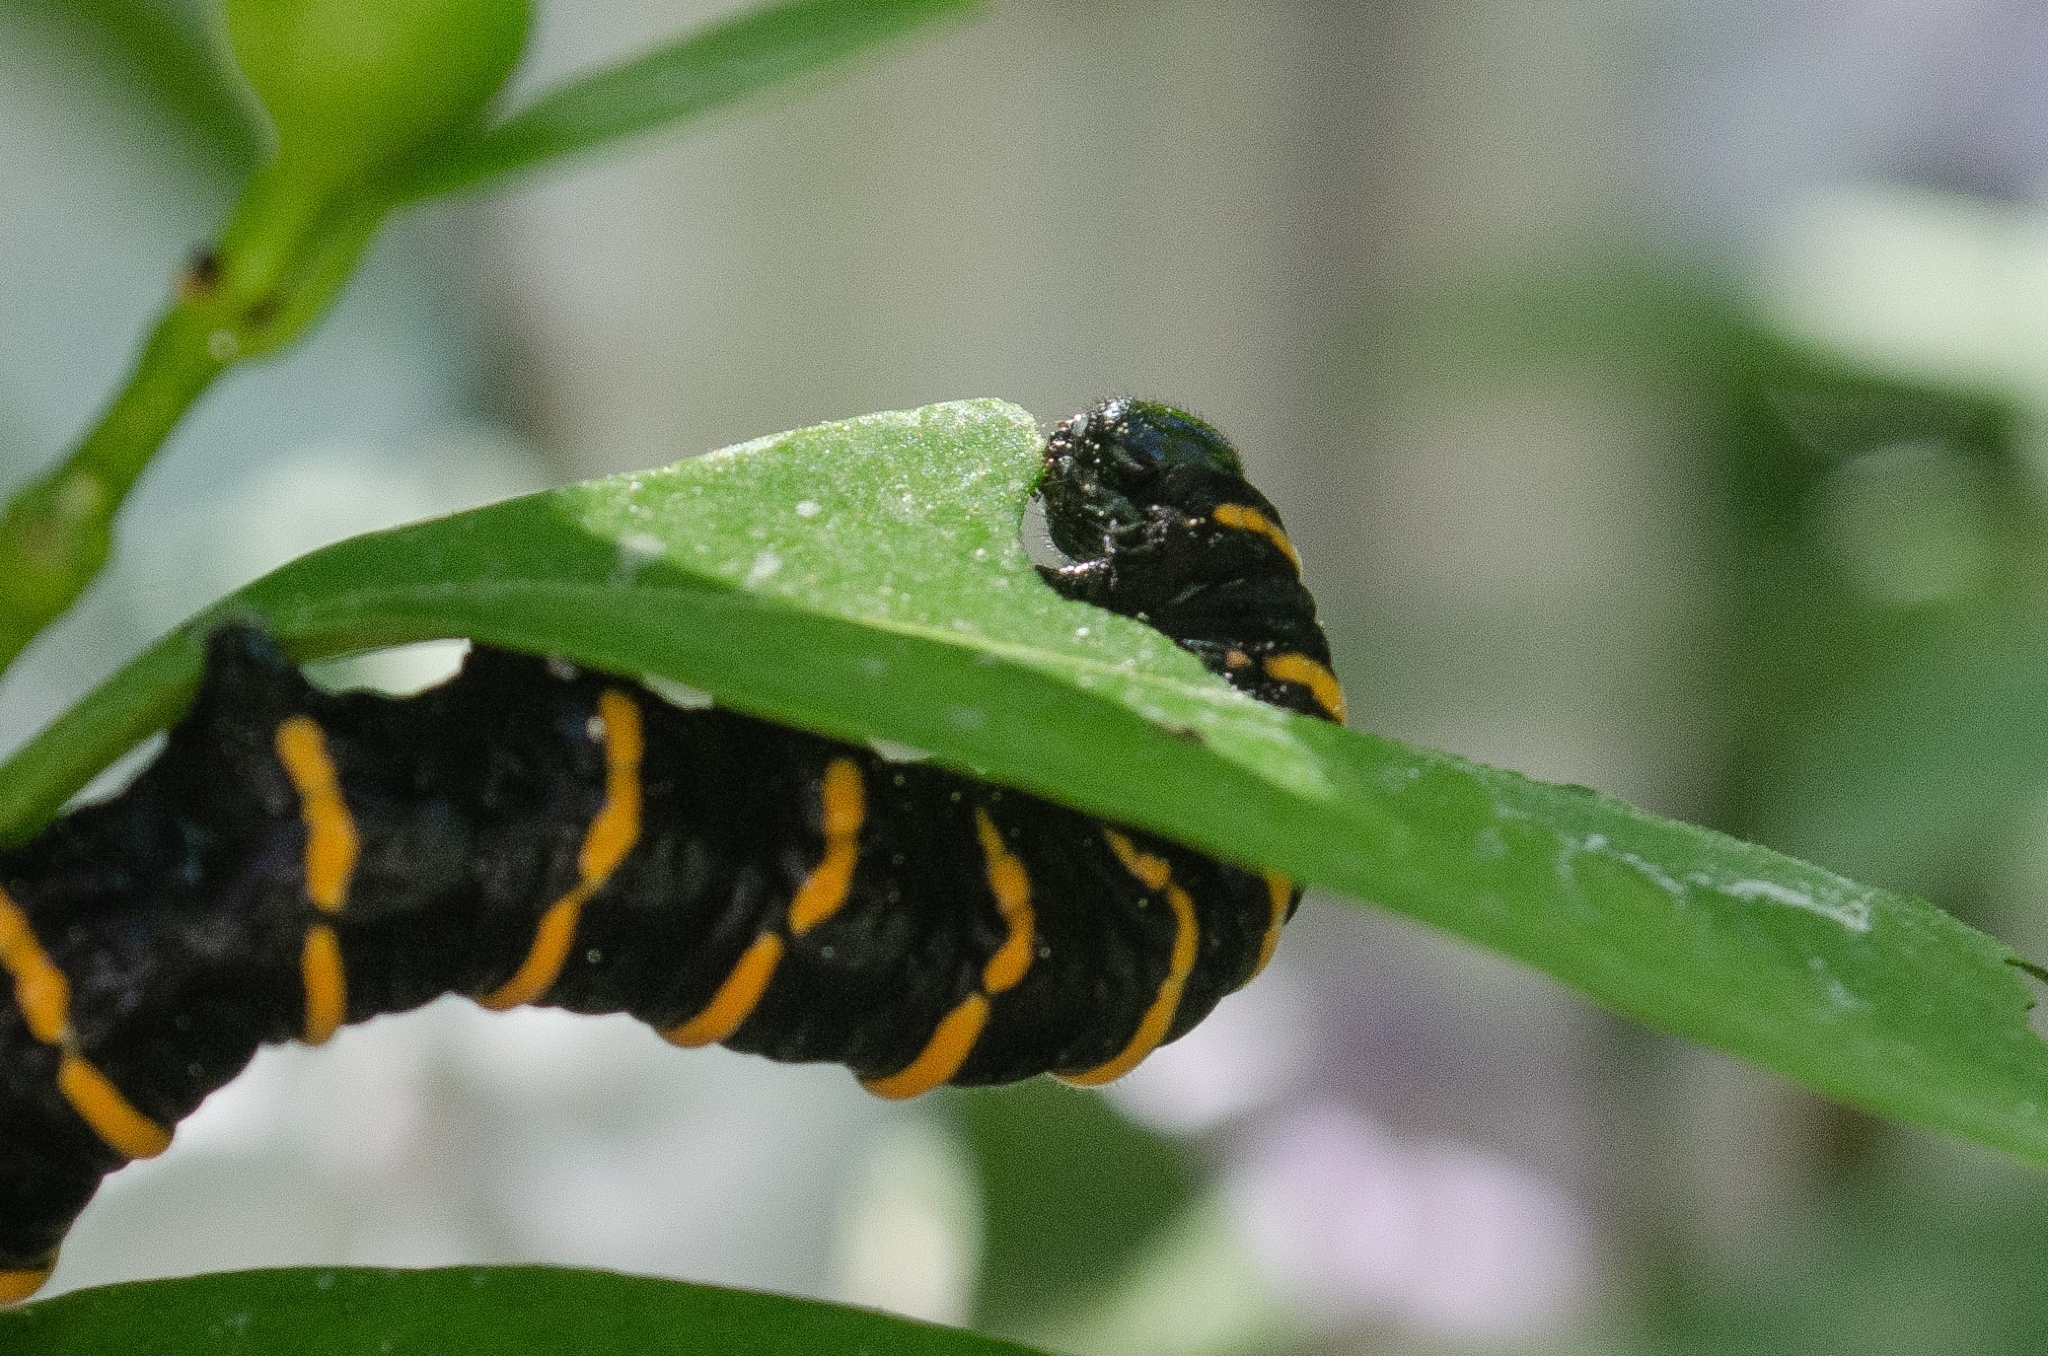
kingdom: Animalia
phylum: Arthropoda
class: Insecta
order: Lepidoptera
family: Nymphalidae
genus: Methona
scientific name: Methona themisto
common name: Themisto amberwing
